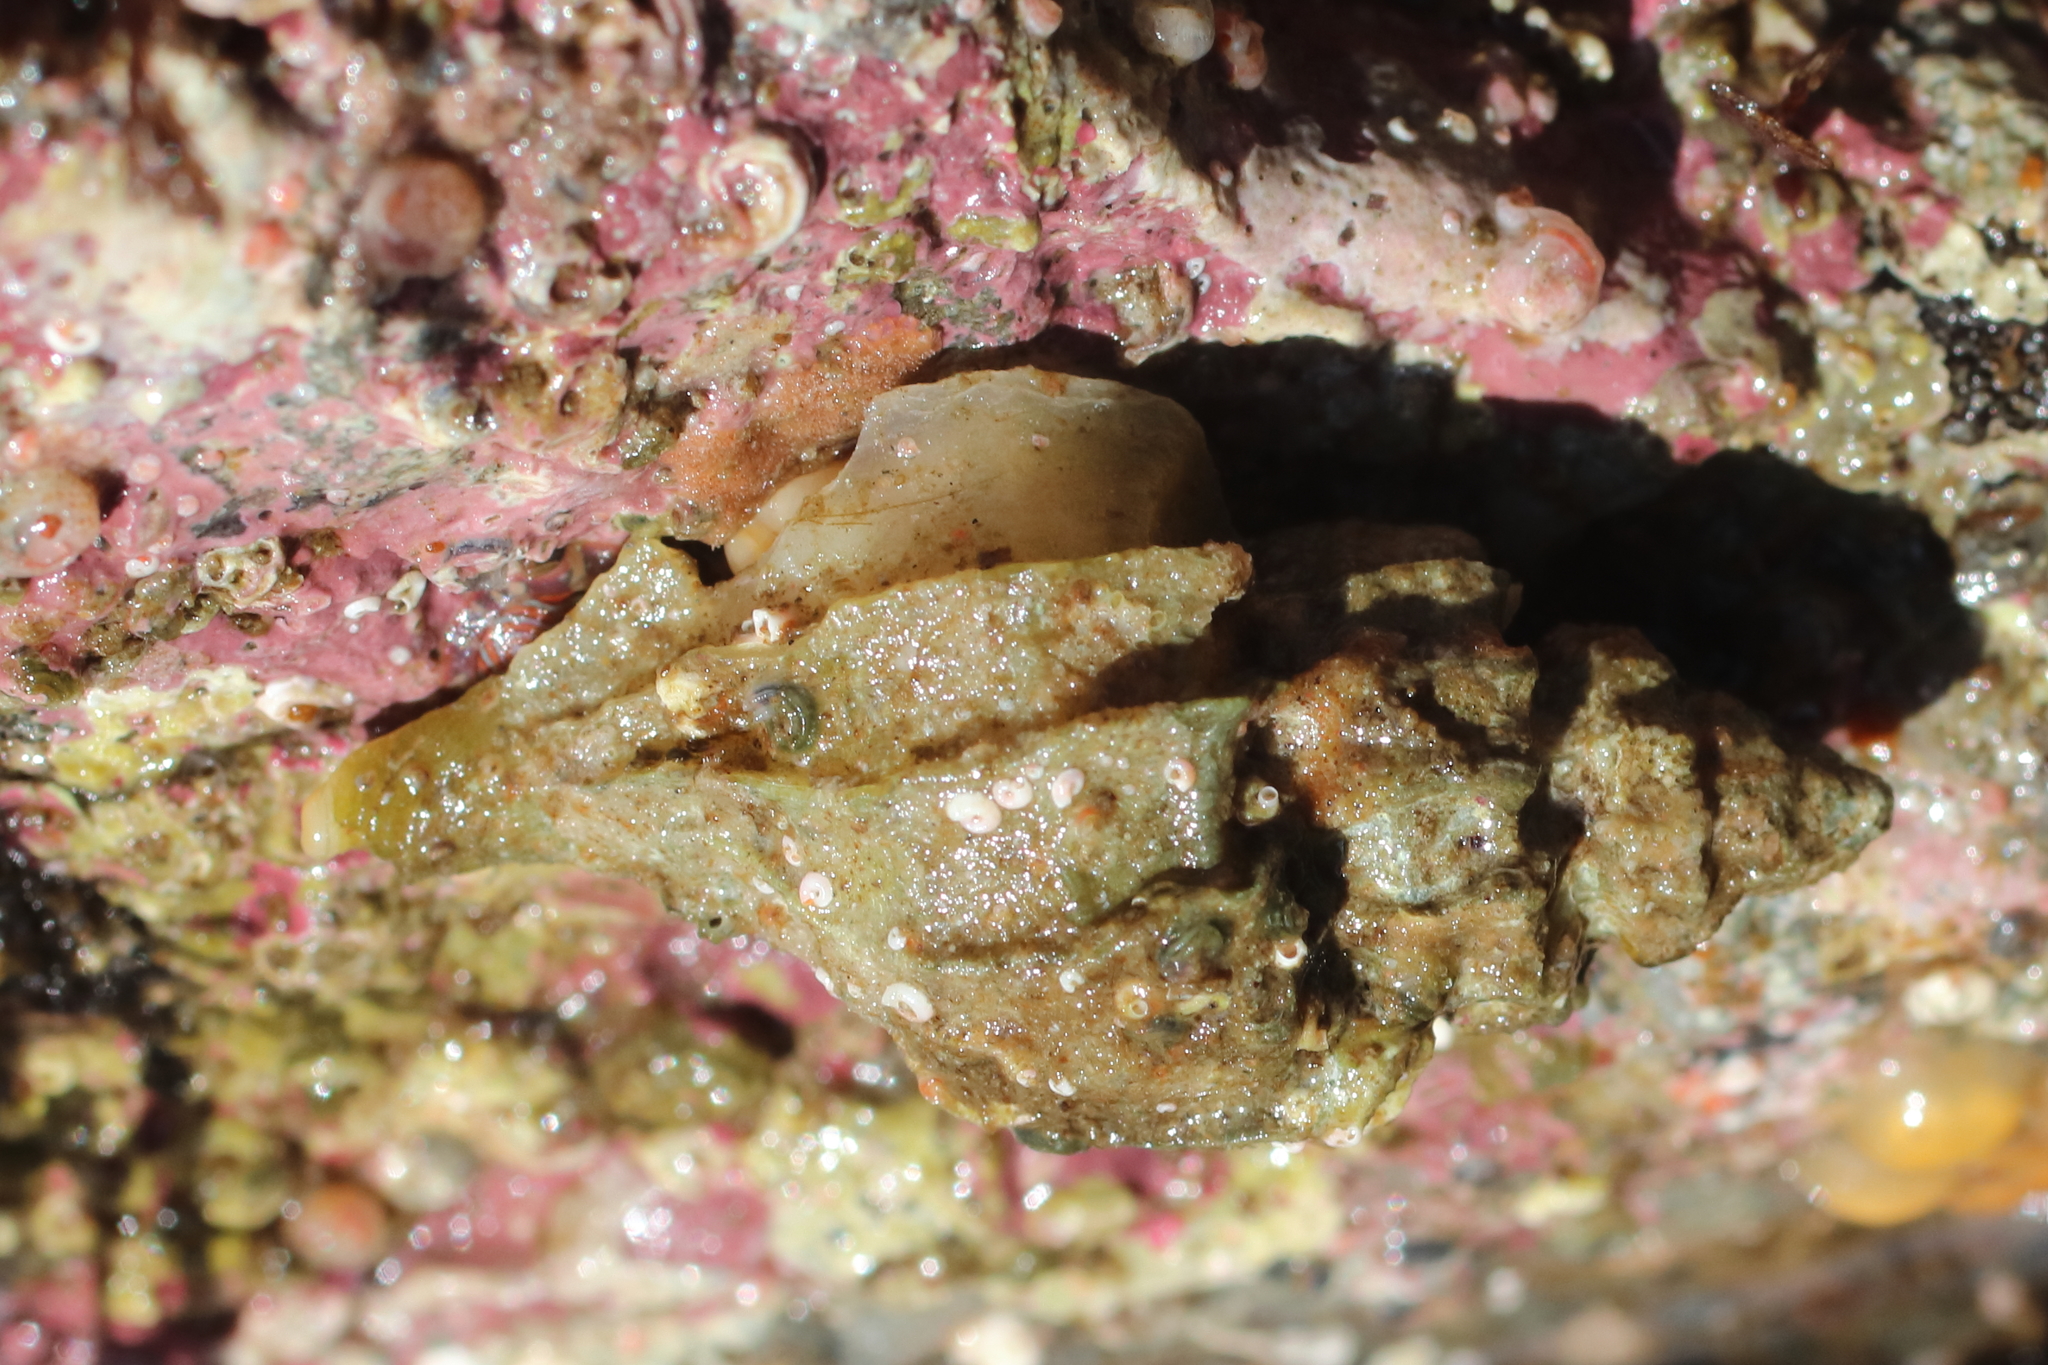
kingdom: Animalia
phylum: Mollusca
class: Gastropoda
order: Neogastropoda
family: Muricidae
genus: Scabrotrophon
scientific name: Scabrotrophon stuarti
